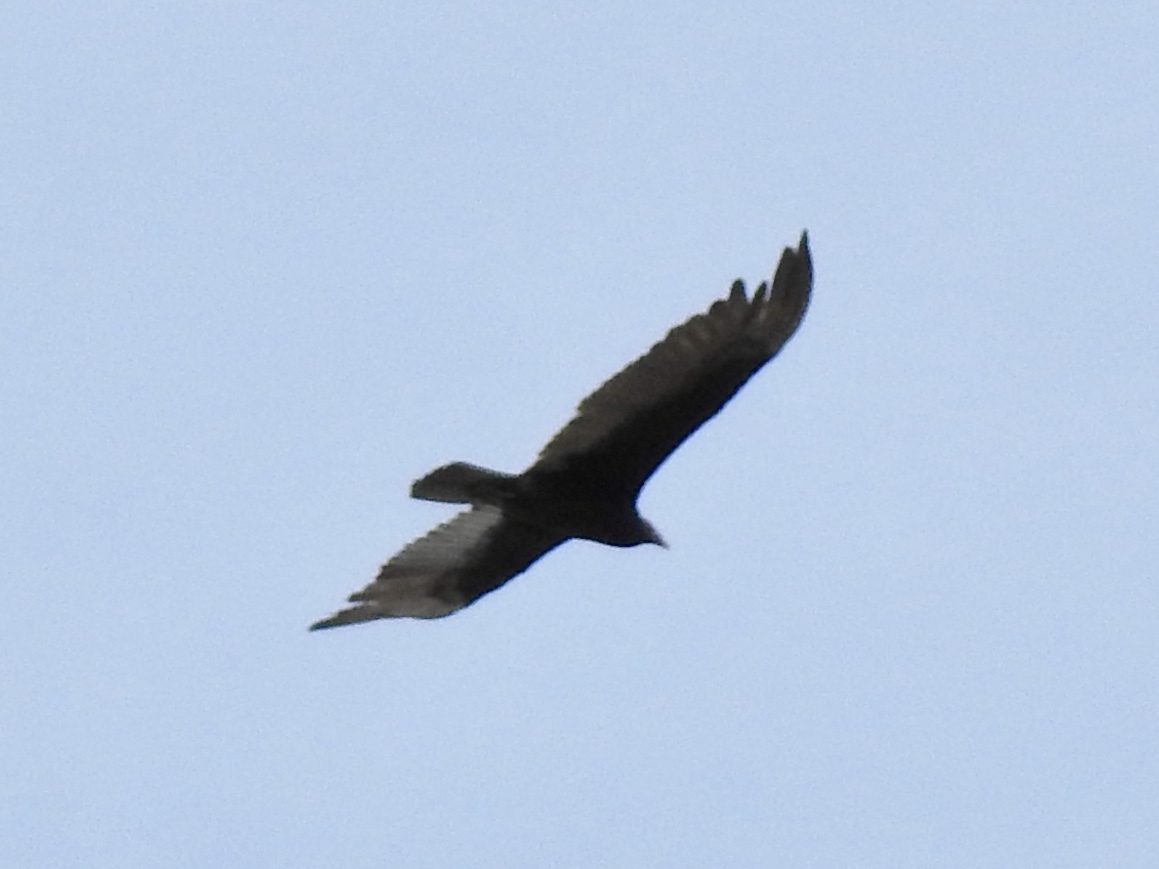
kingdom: Animalia
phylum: Chordata
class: Aves
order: Accipitriformes
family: Cathartidae
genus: Cathartes
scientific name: Cathartes aura
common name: Turkey vulture
